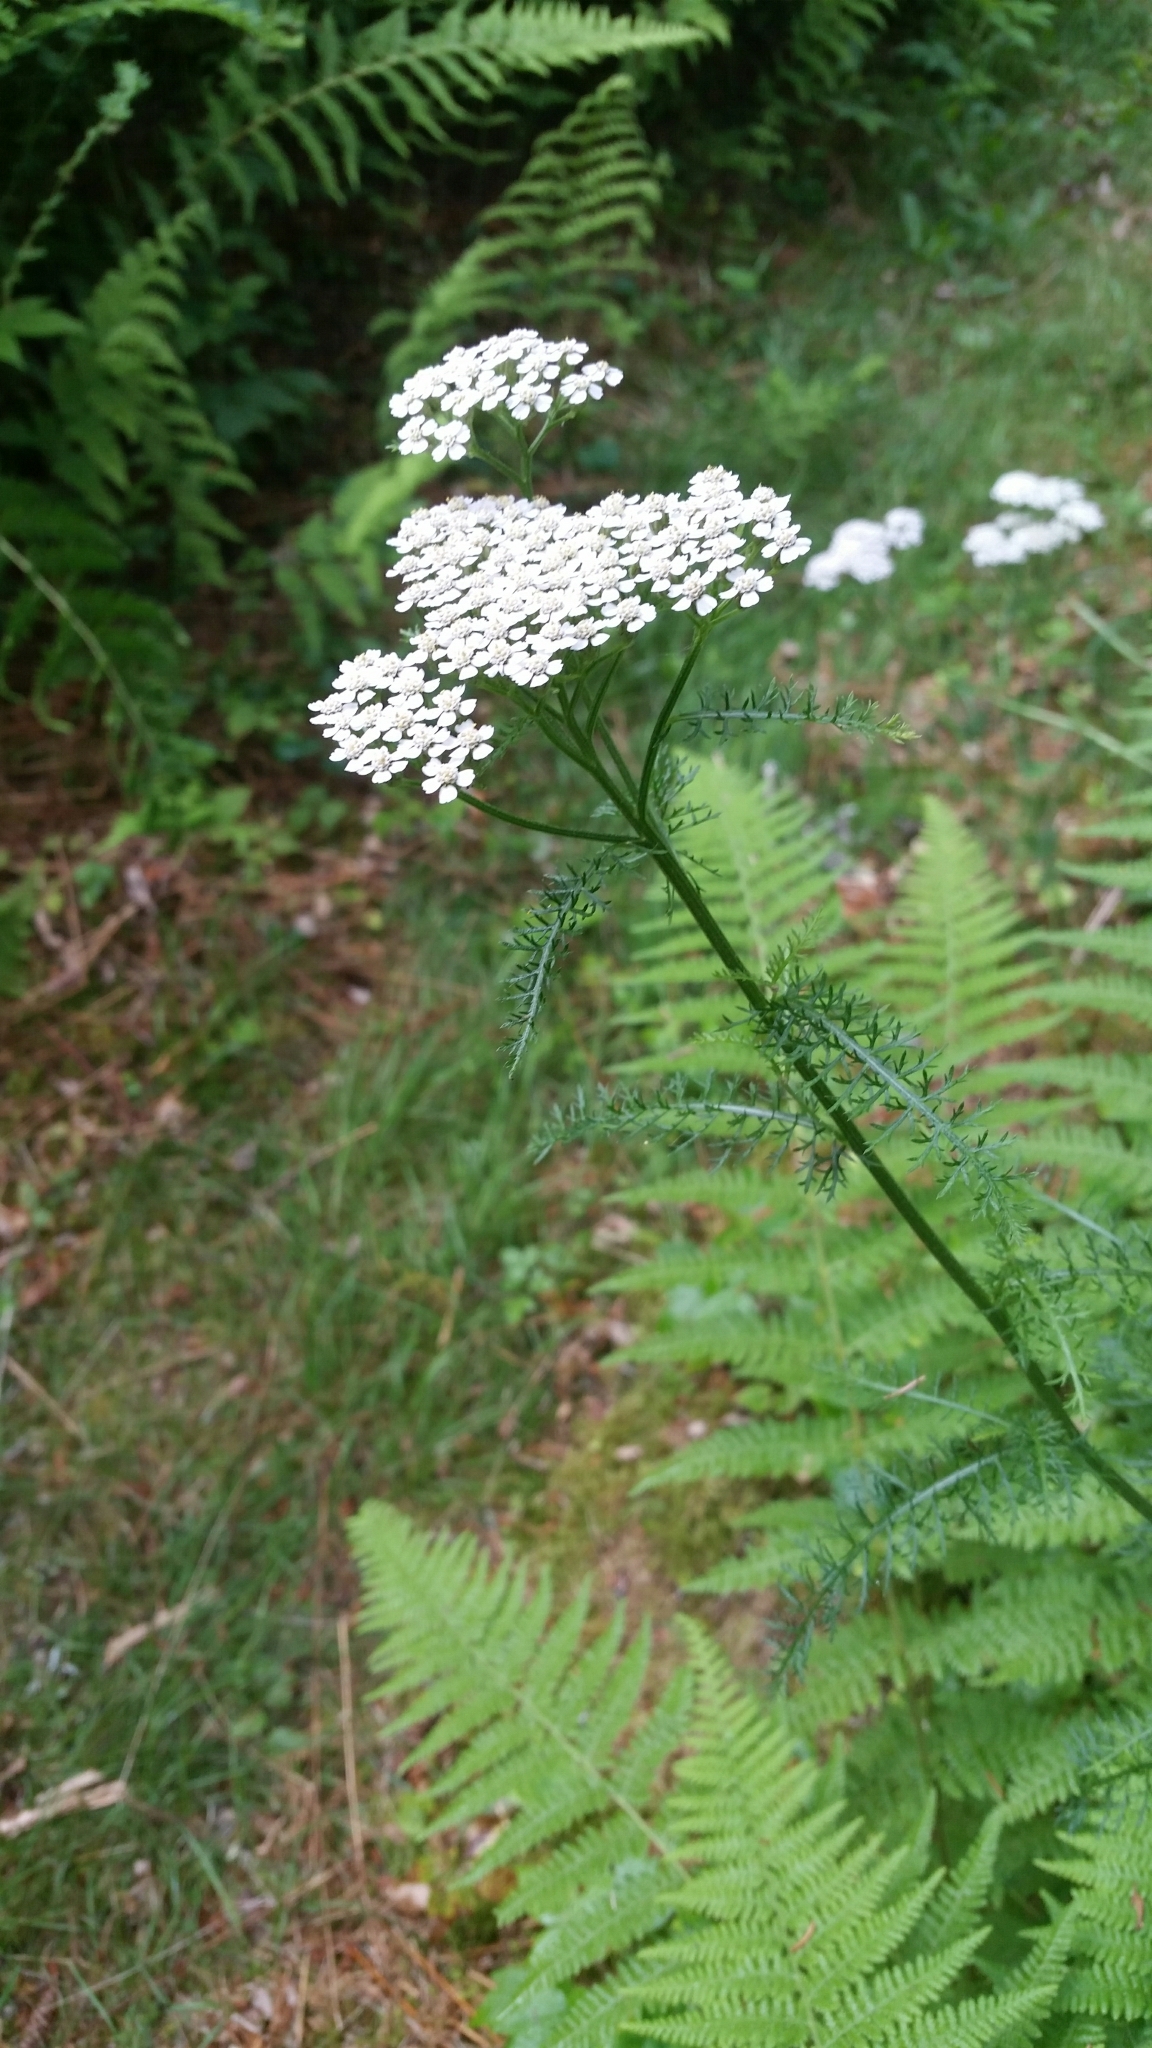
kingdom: Plantae
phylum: Tracheophyta
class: Magnoliopsida
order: Asterales
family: Asteraceae
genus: Achillea
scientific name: Achillea millefolium
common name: Yarrow
